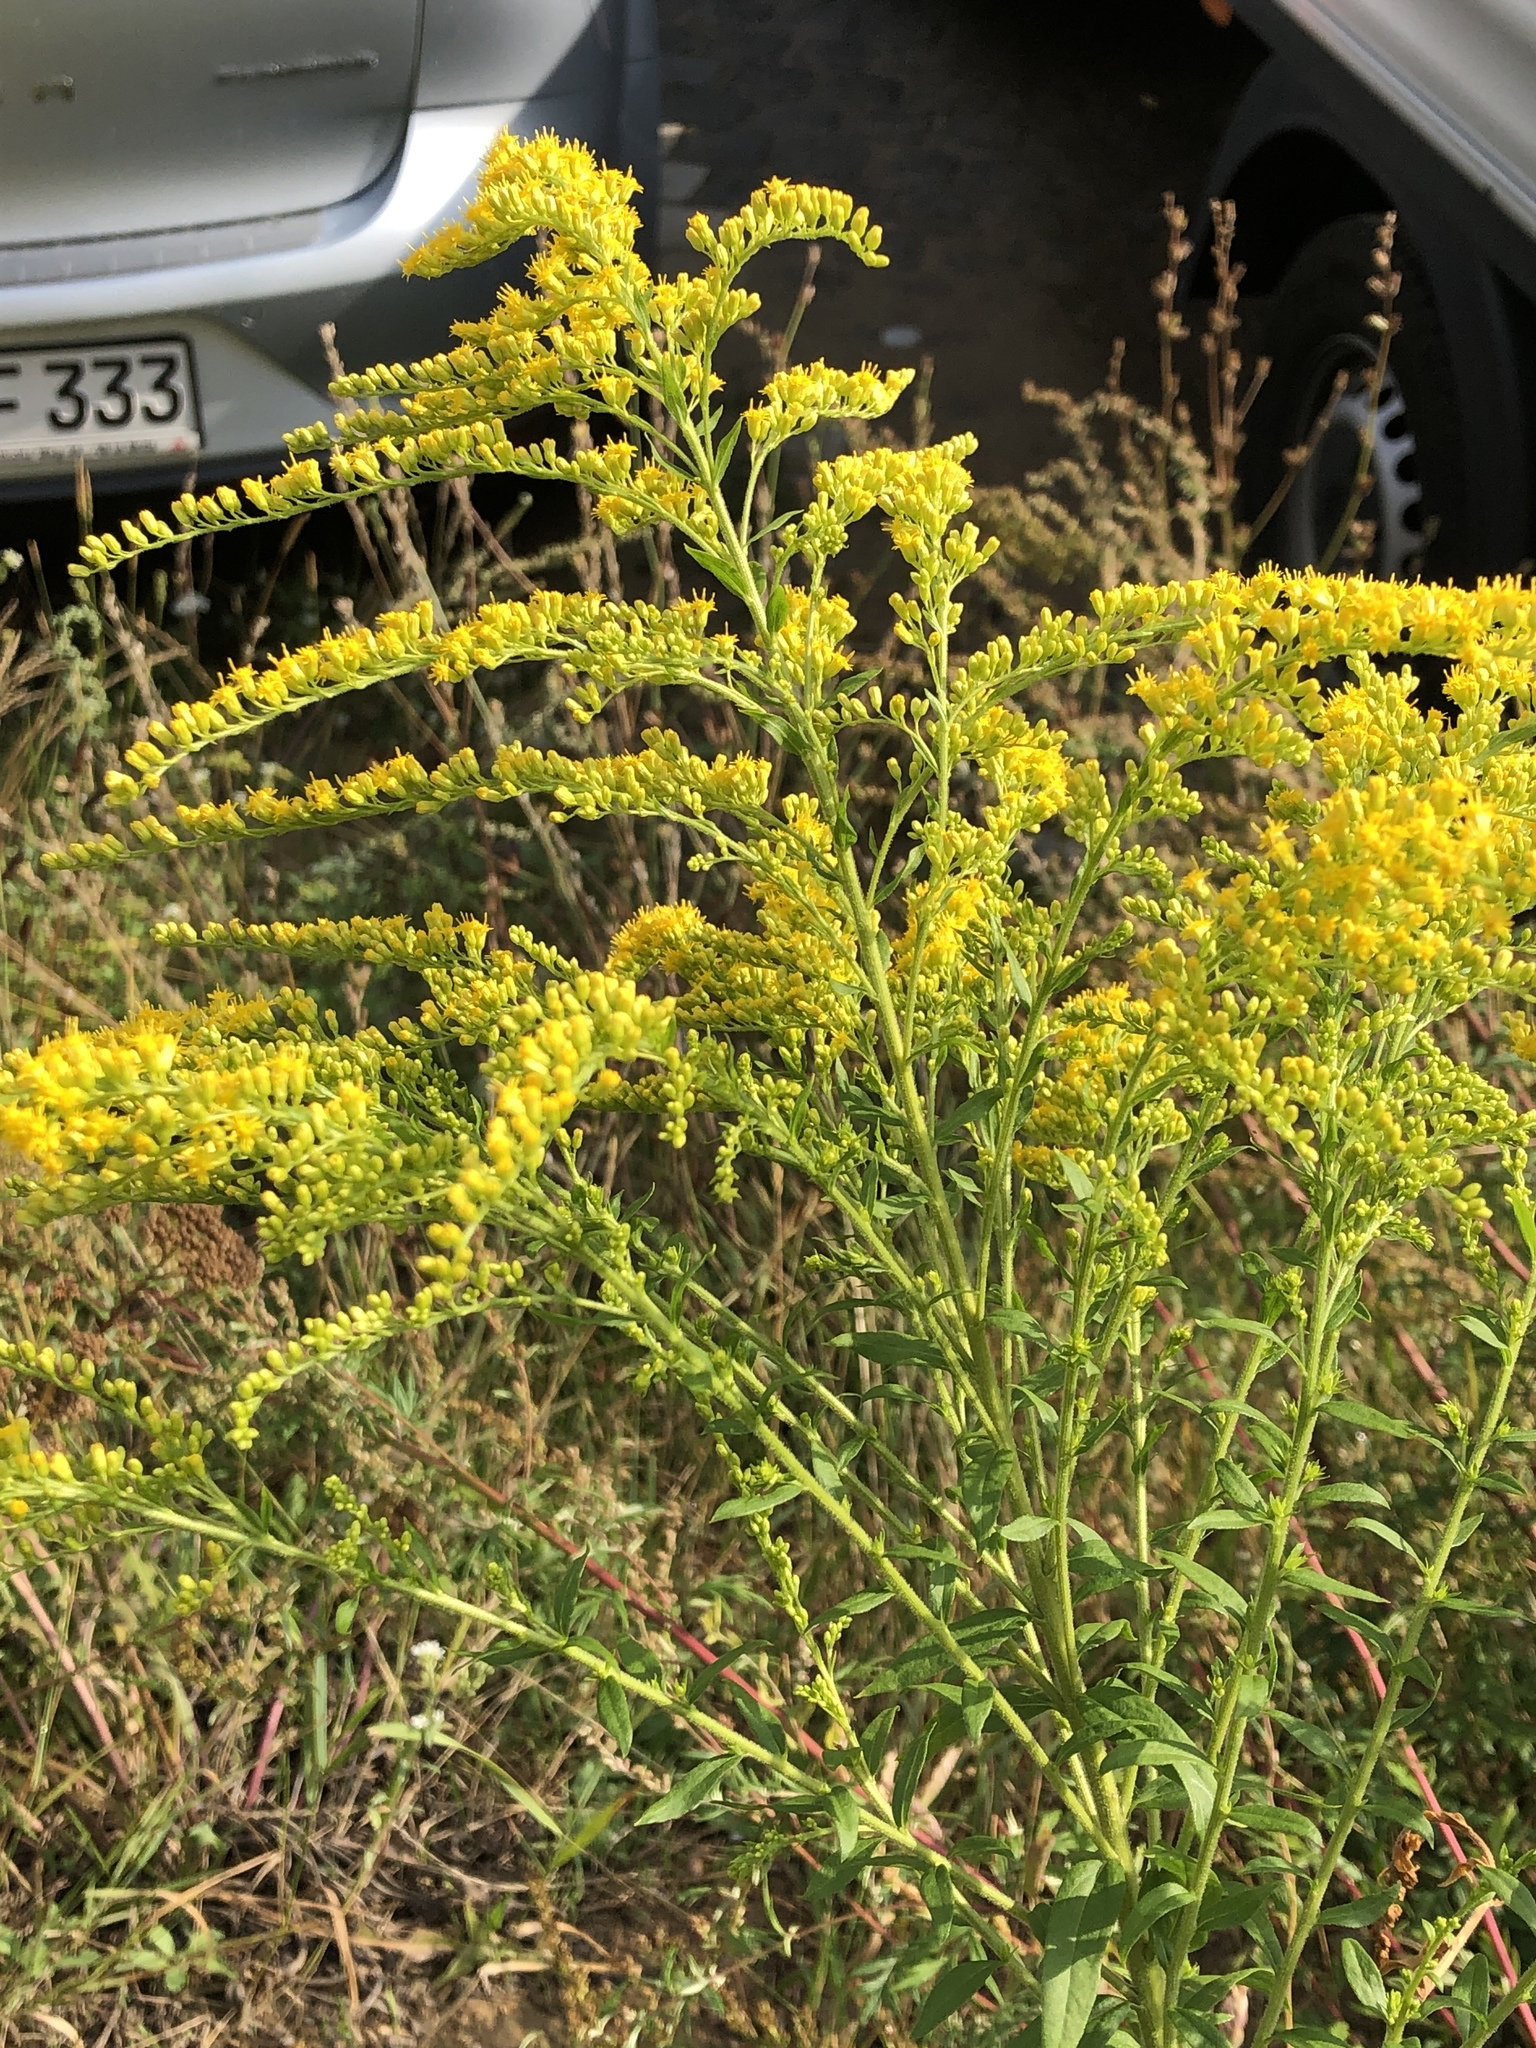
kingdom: Plantae
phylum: Tracheophyta
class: Magnoliopsida
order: Asterales
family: Asteraceae
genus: Solidago
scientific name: Solidago canadensis
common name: Canada goldenrod
